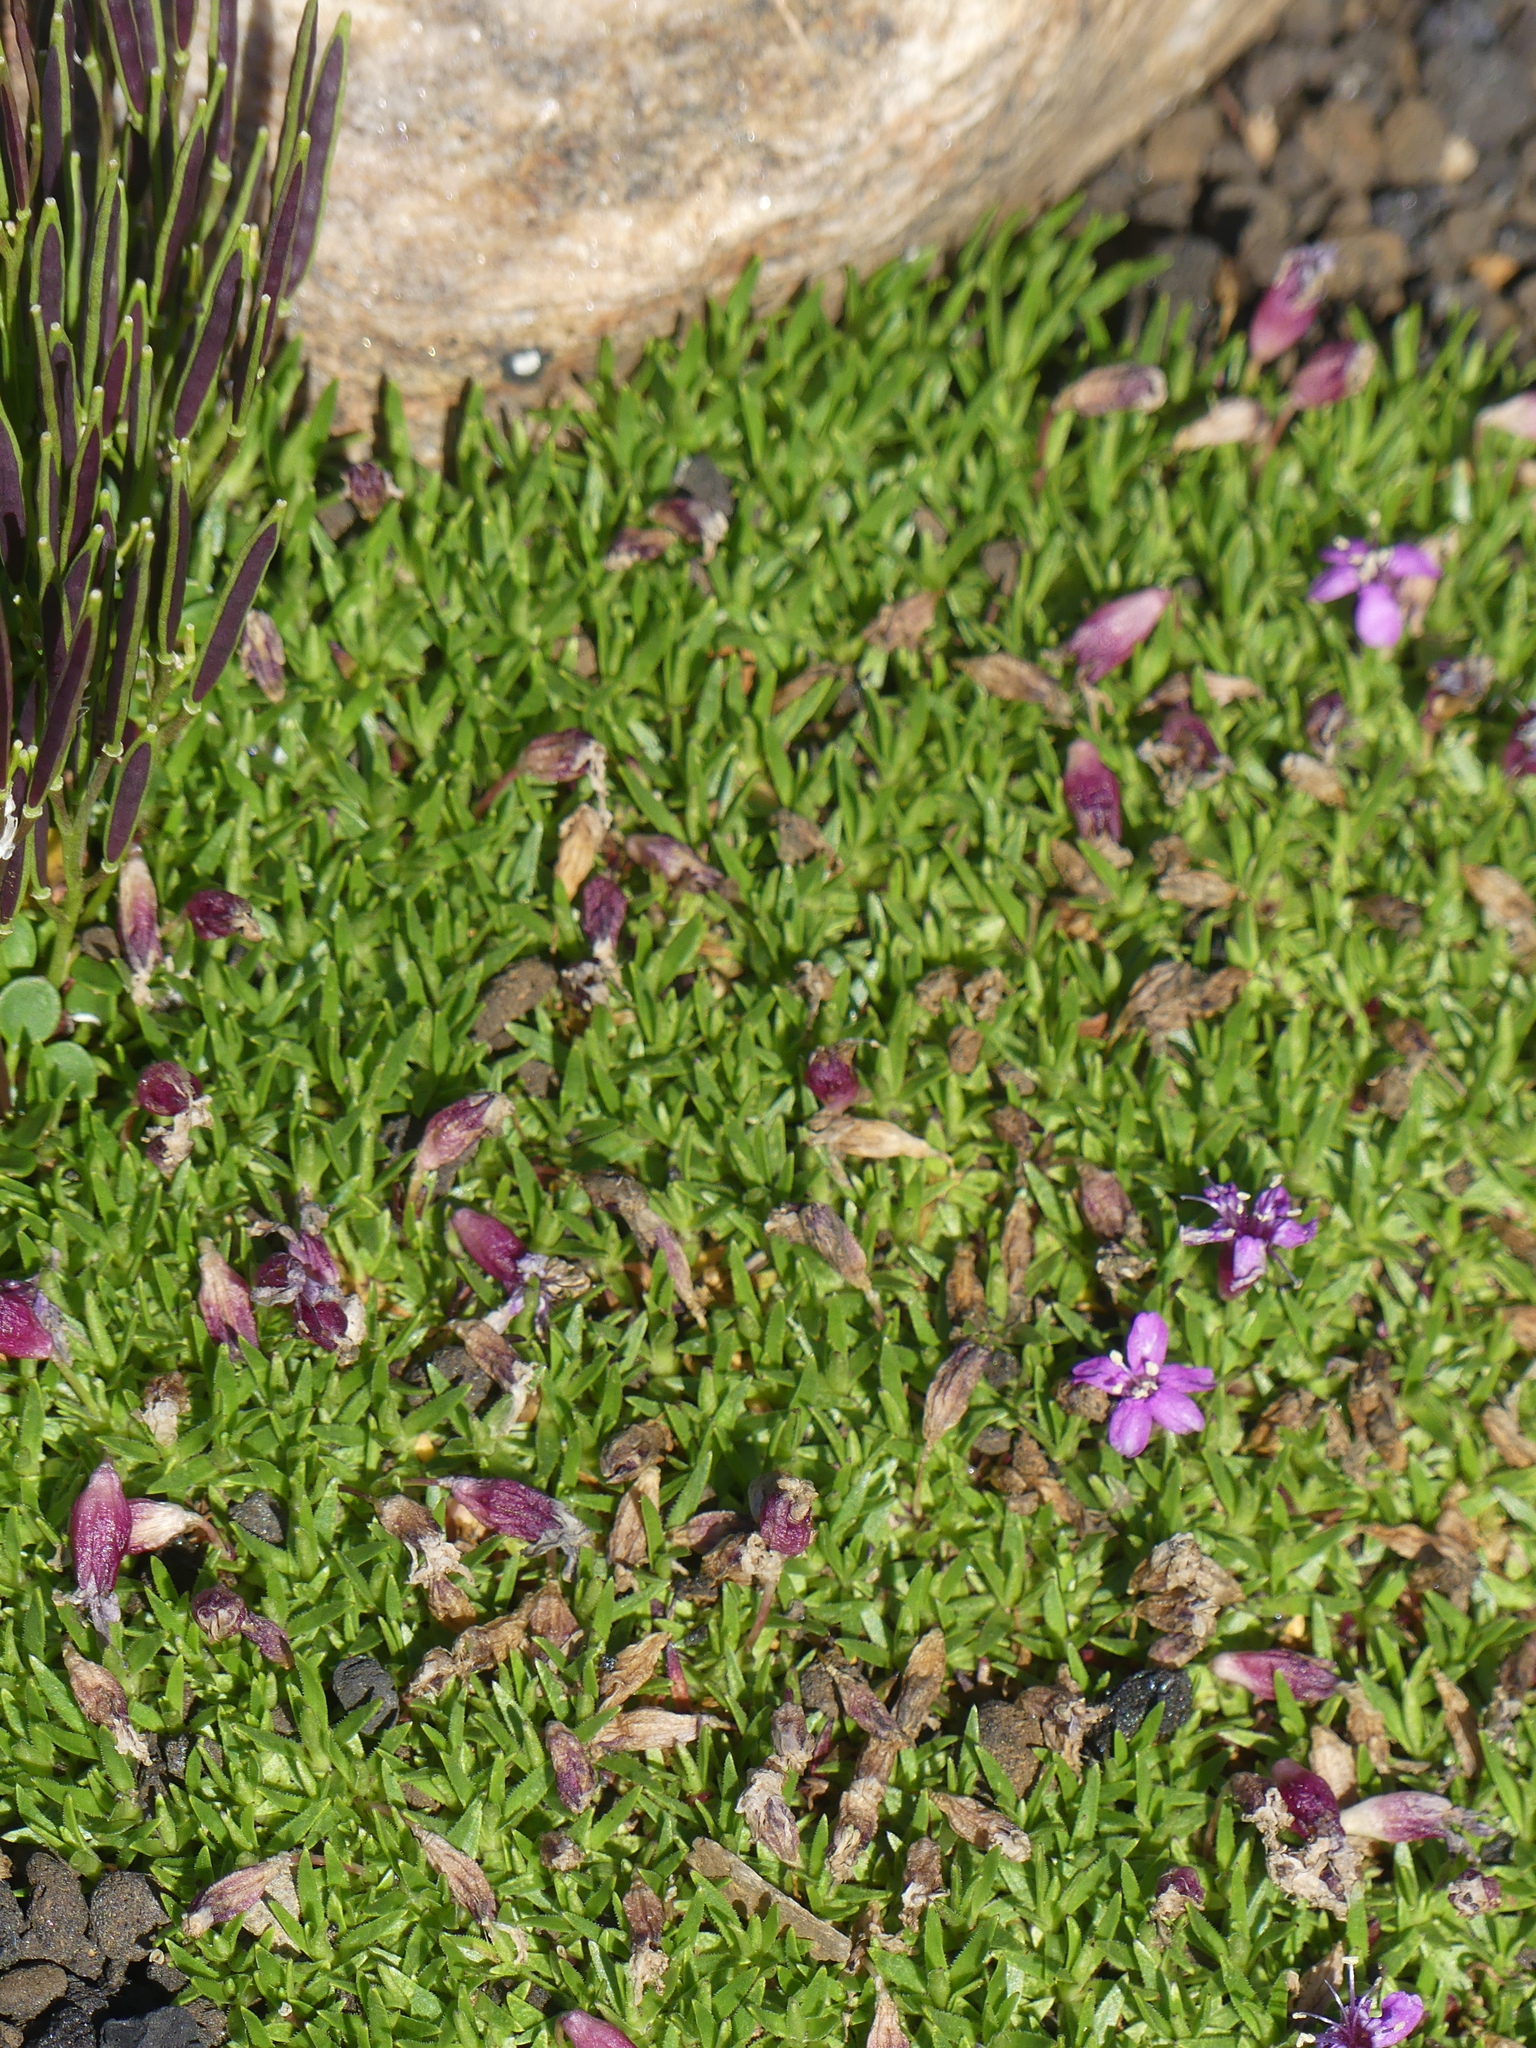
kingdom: Plantae
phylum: Tracheophyta
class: Magnoliopsida
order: Brassicales
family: Brassicaceae
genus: Cardamine
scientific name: Cardamine bellidifolia
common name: Alpine bittercress
